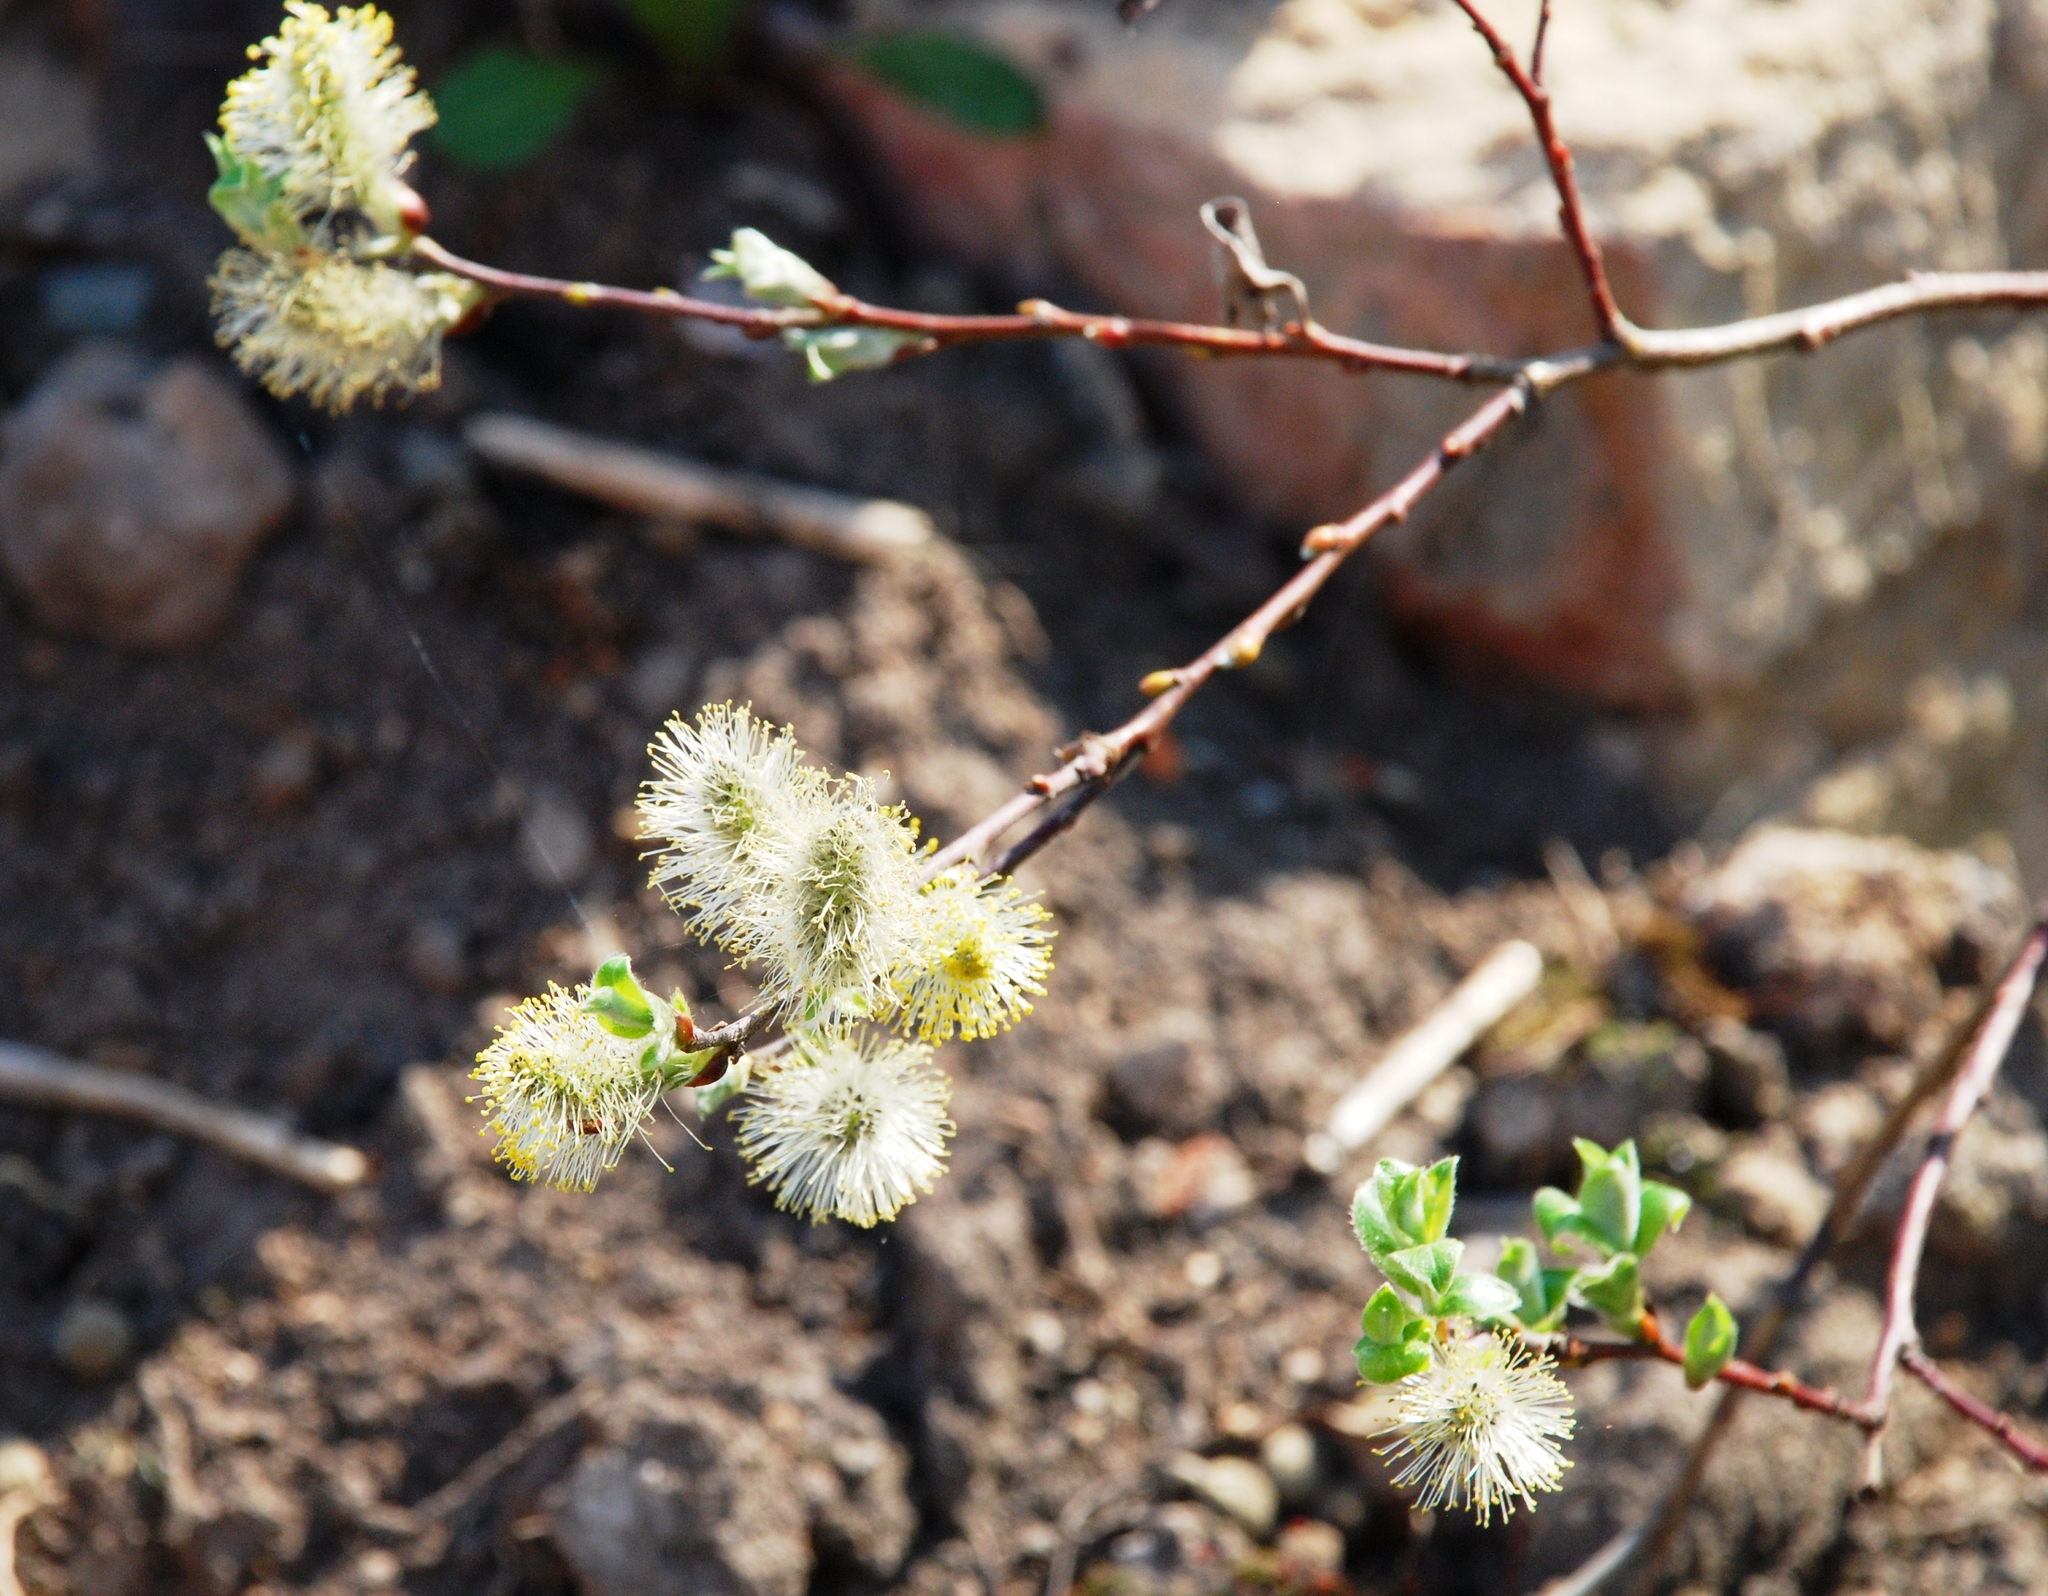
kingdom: Plantae
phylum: Tracheophyta
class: Magnoliopsida
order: Malpighiales
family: Salicaceae
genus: Salix
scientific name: Salix caprea
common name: Goat willow
